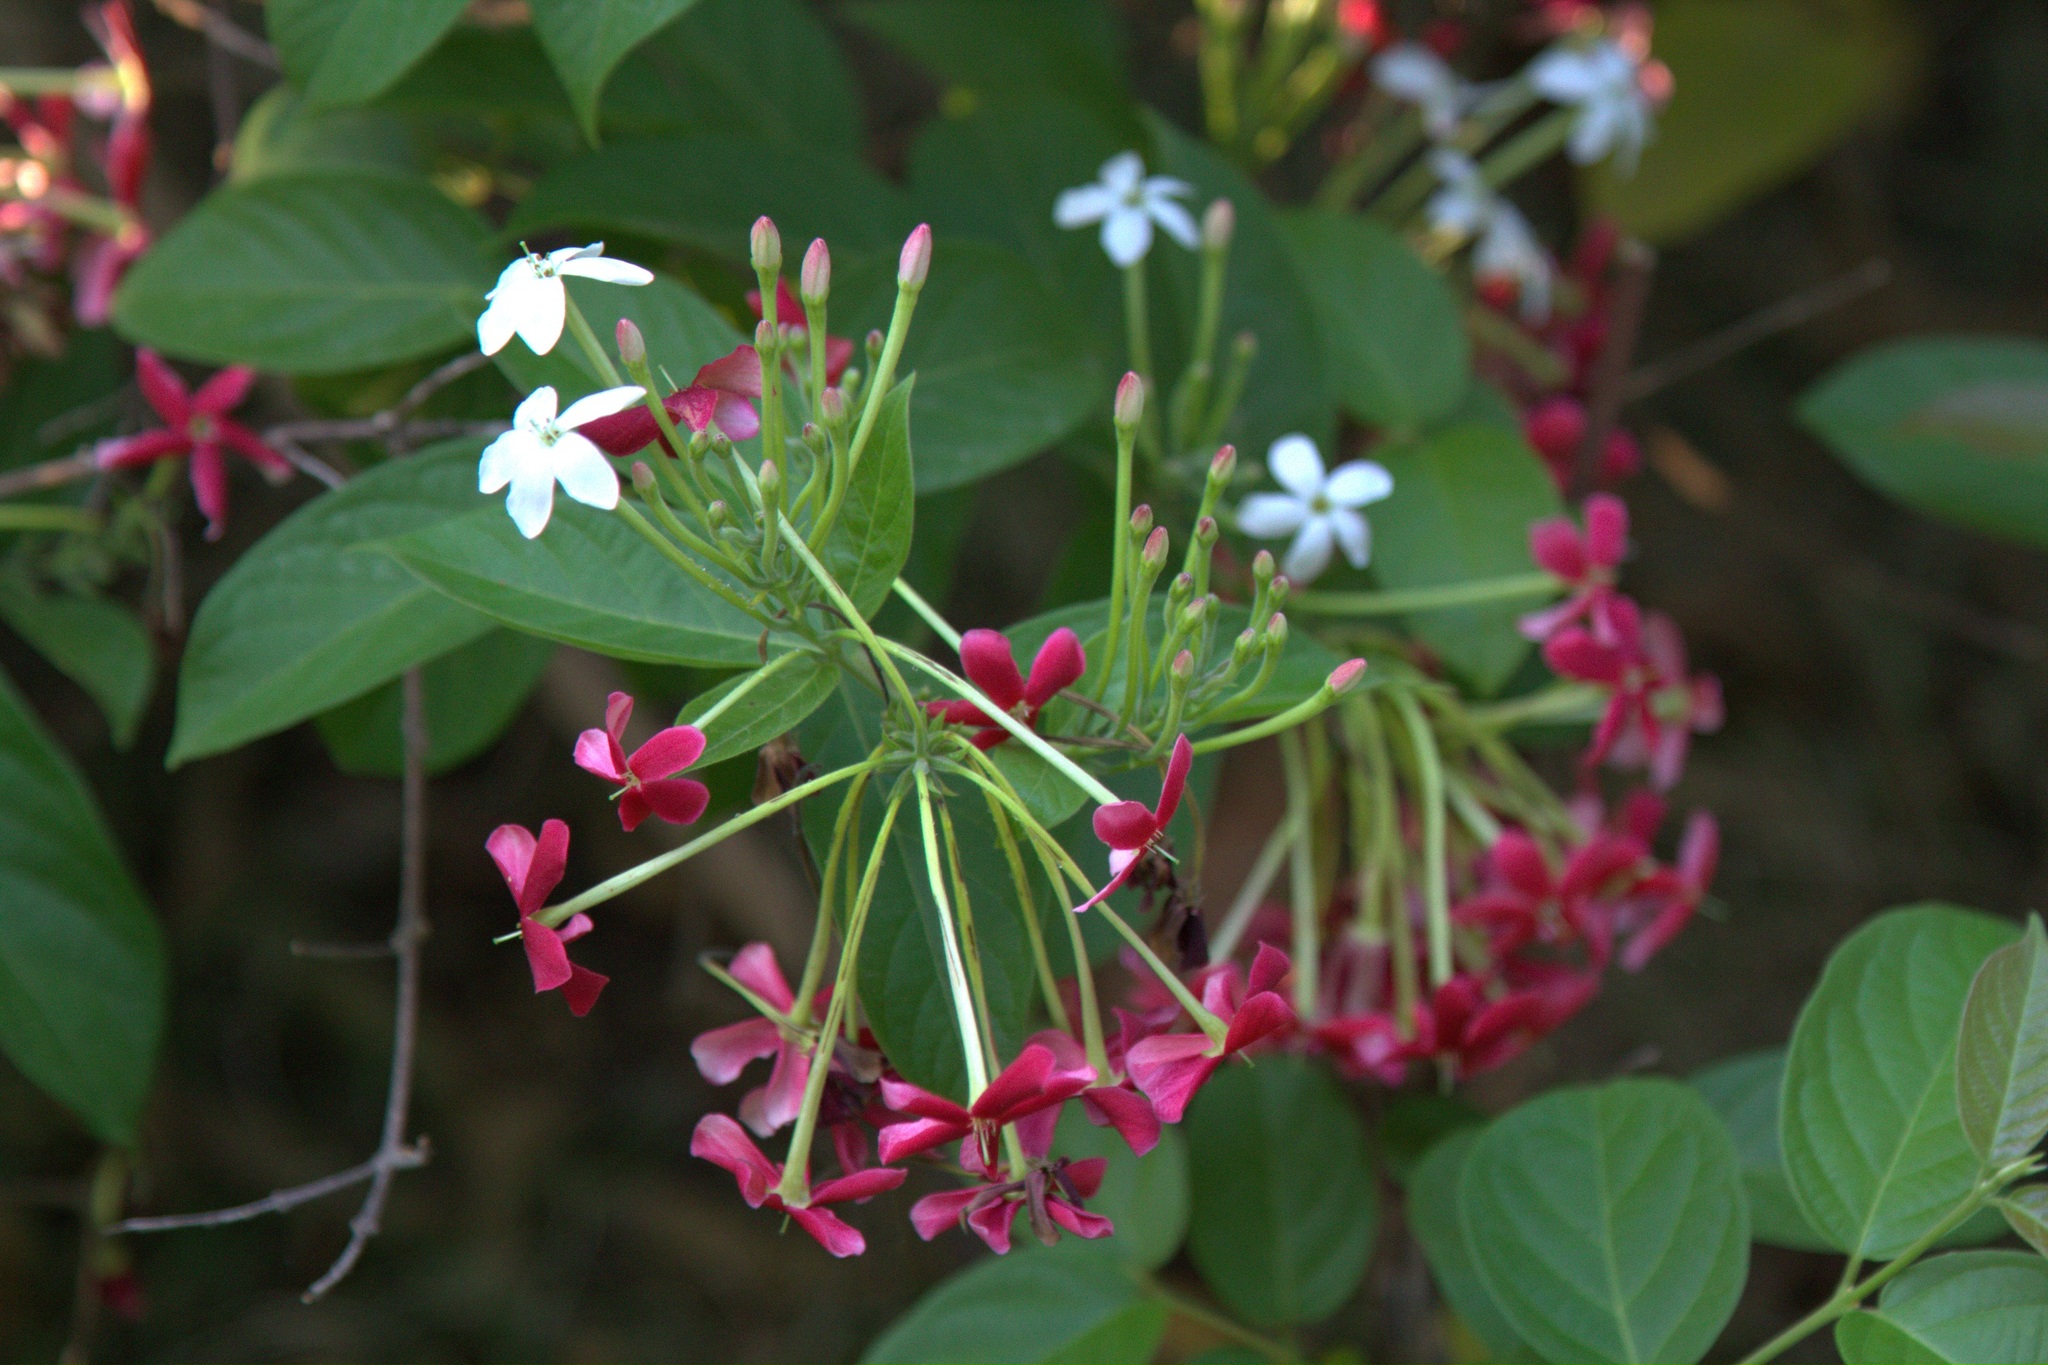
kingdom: Plantae
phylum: Tracheophyta
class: Magnoliopsida
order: Myrtales
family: Combretaceae
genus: Combretum
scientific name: Combretum indicum
